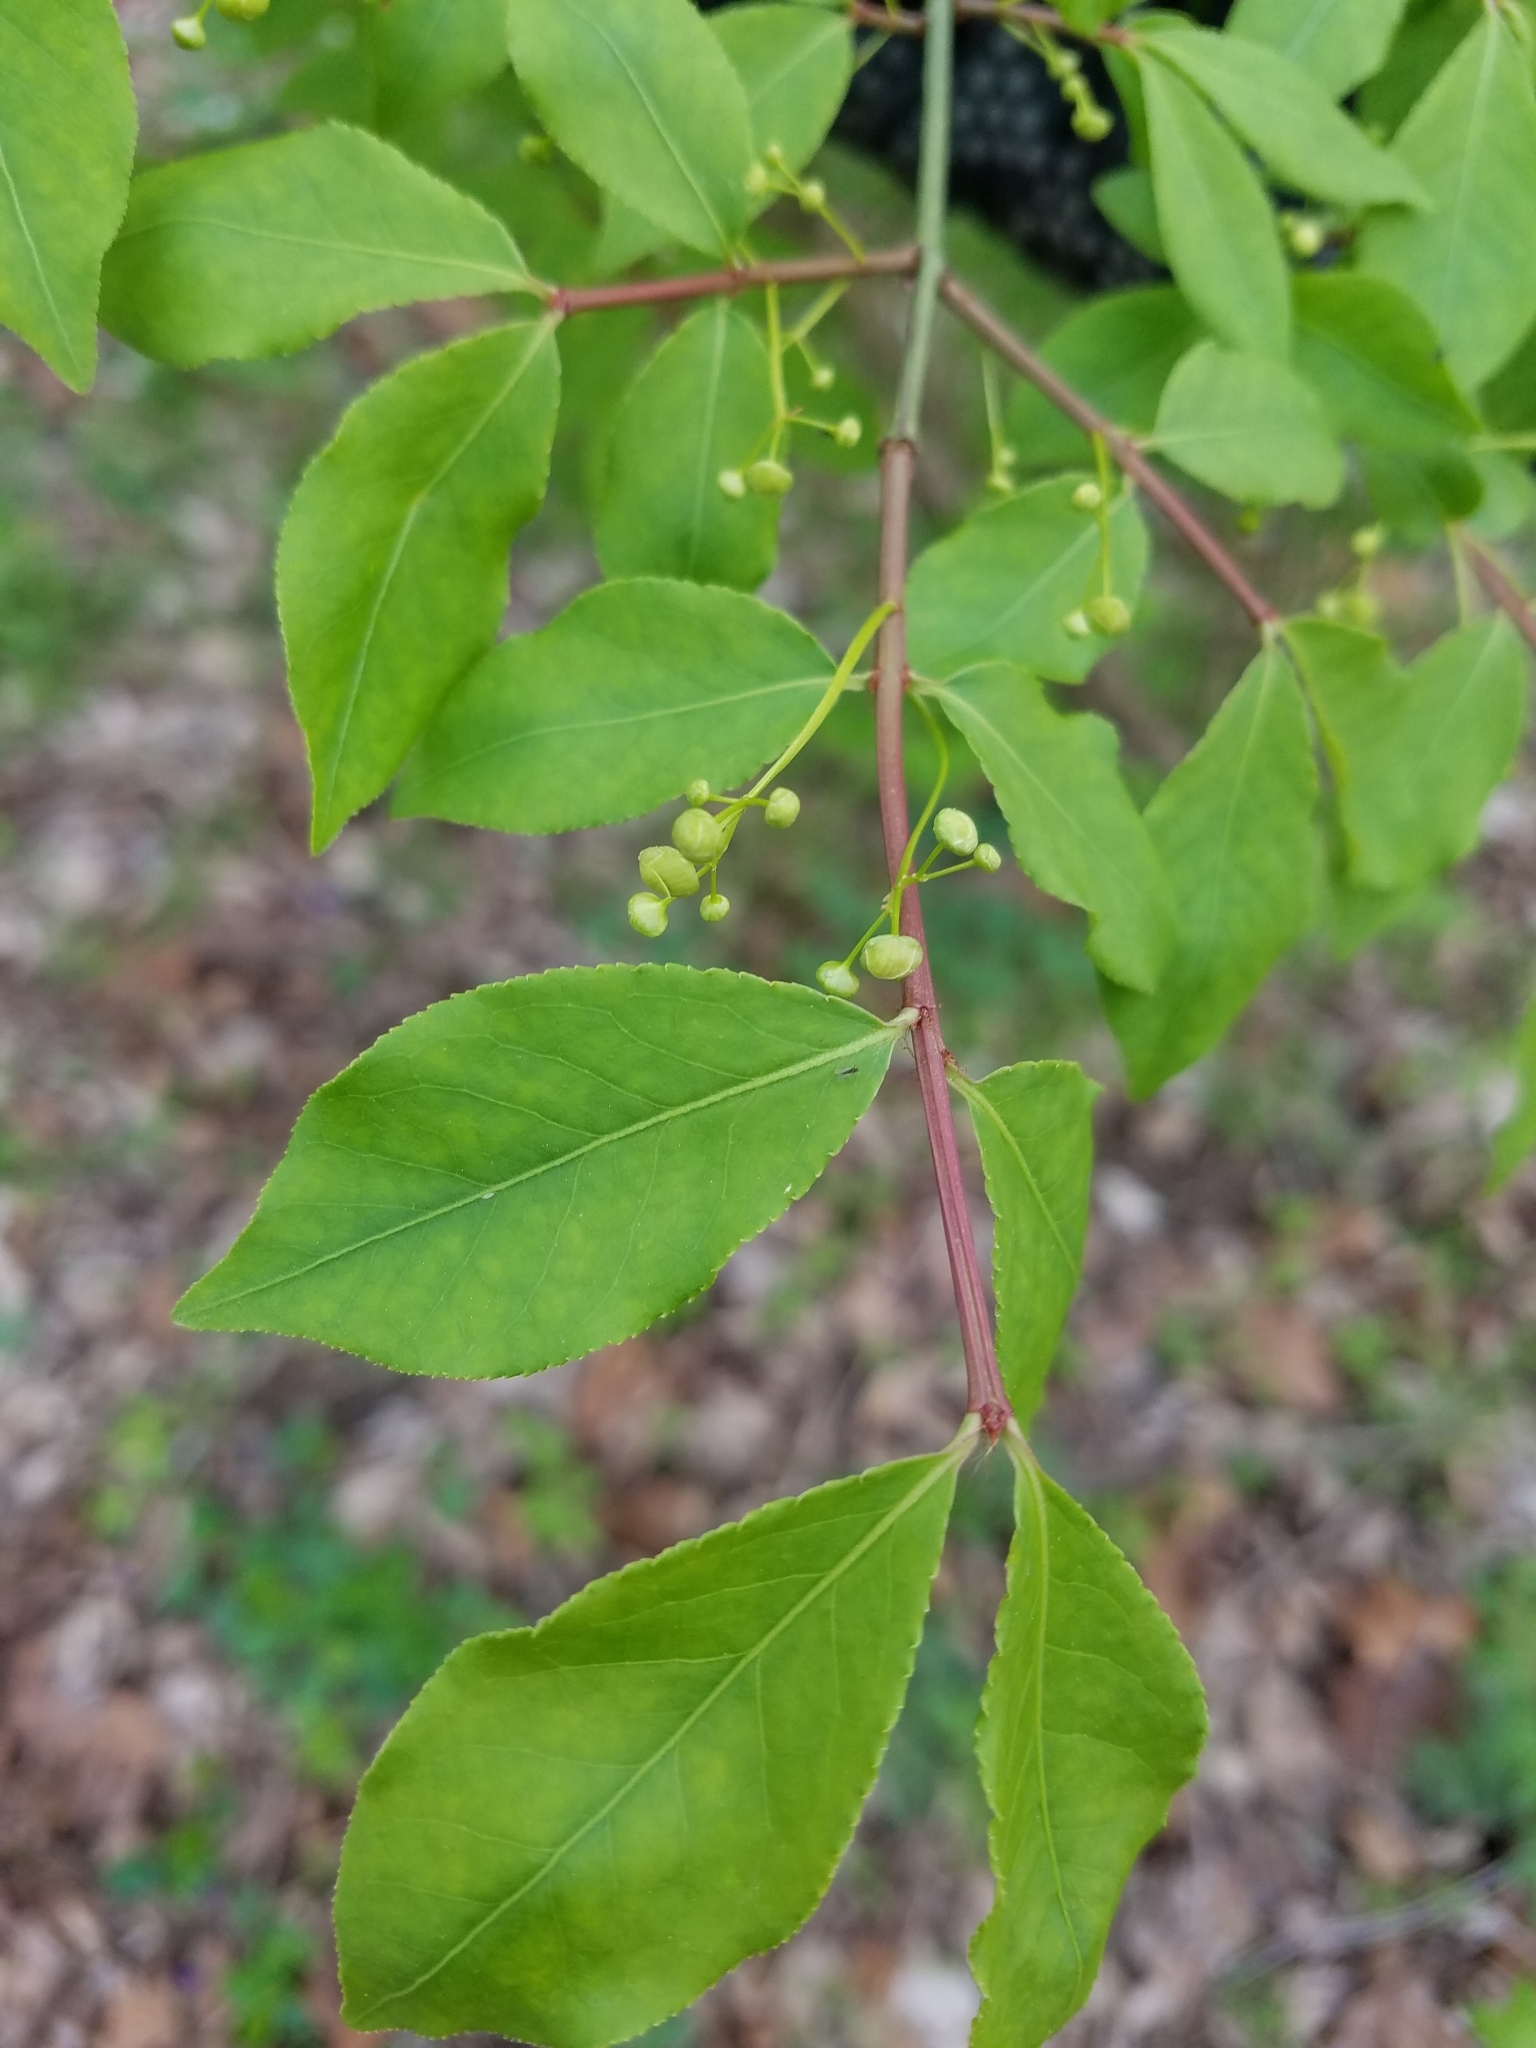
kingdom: Plantae
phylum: Tracheophyta
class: Magnoliopsida
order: Celastrales
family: Celastraceae
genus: Euonymus
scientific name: Euonymus alatus
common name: Winged euonymus
